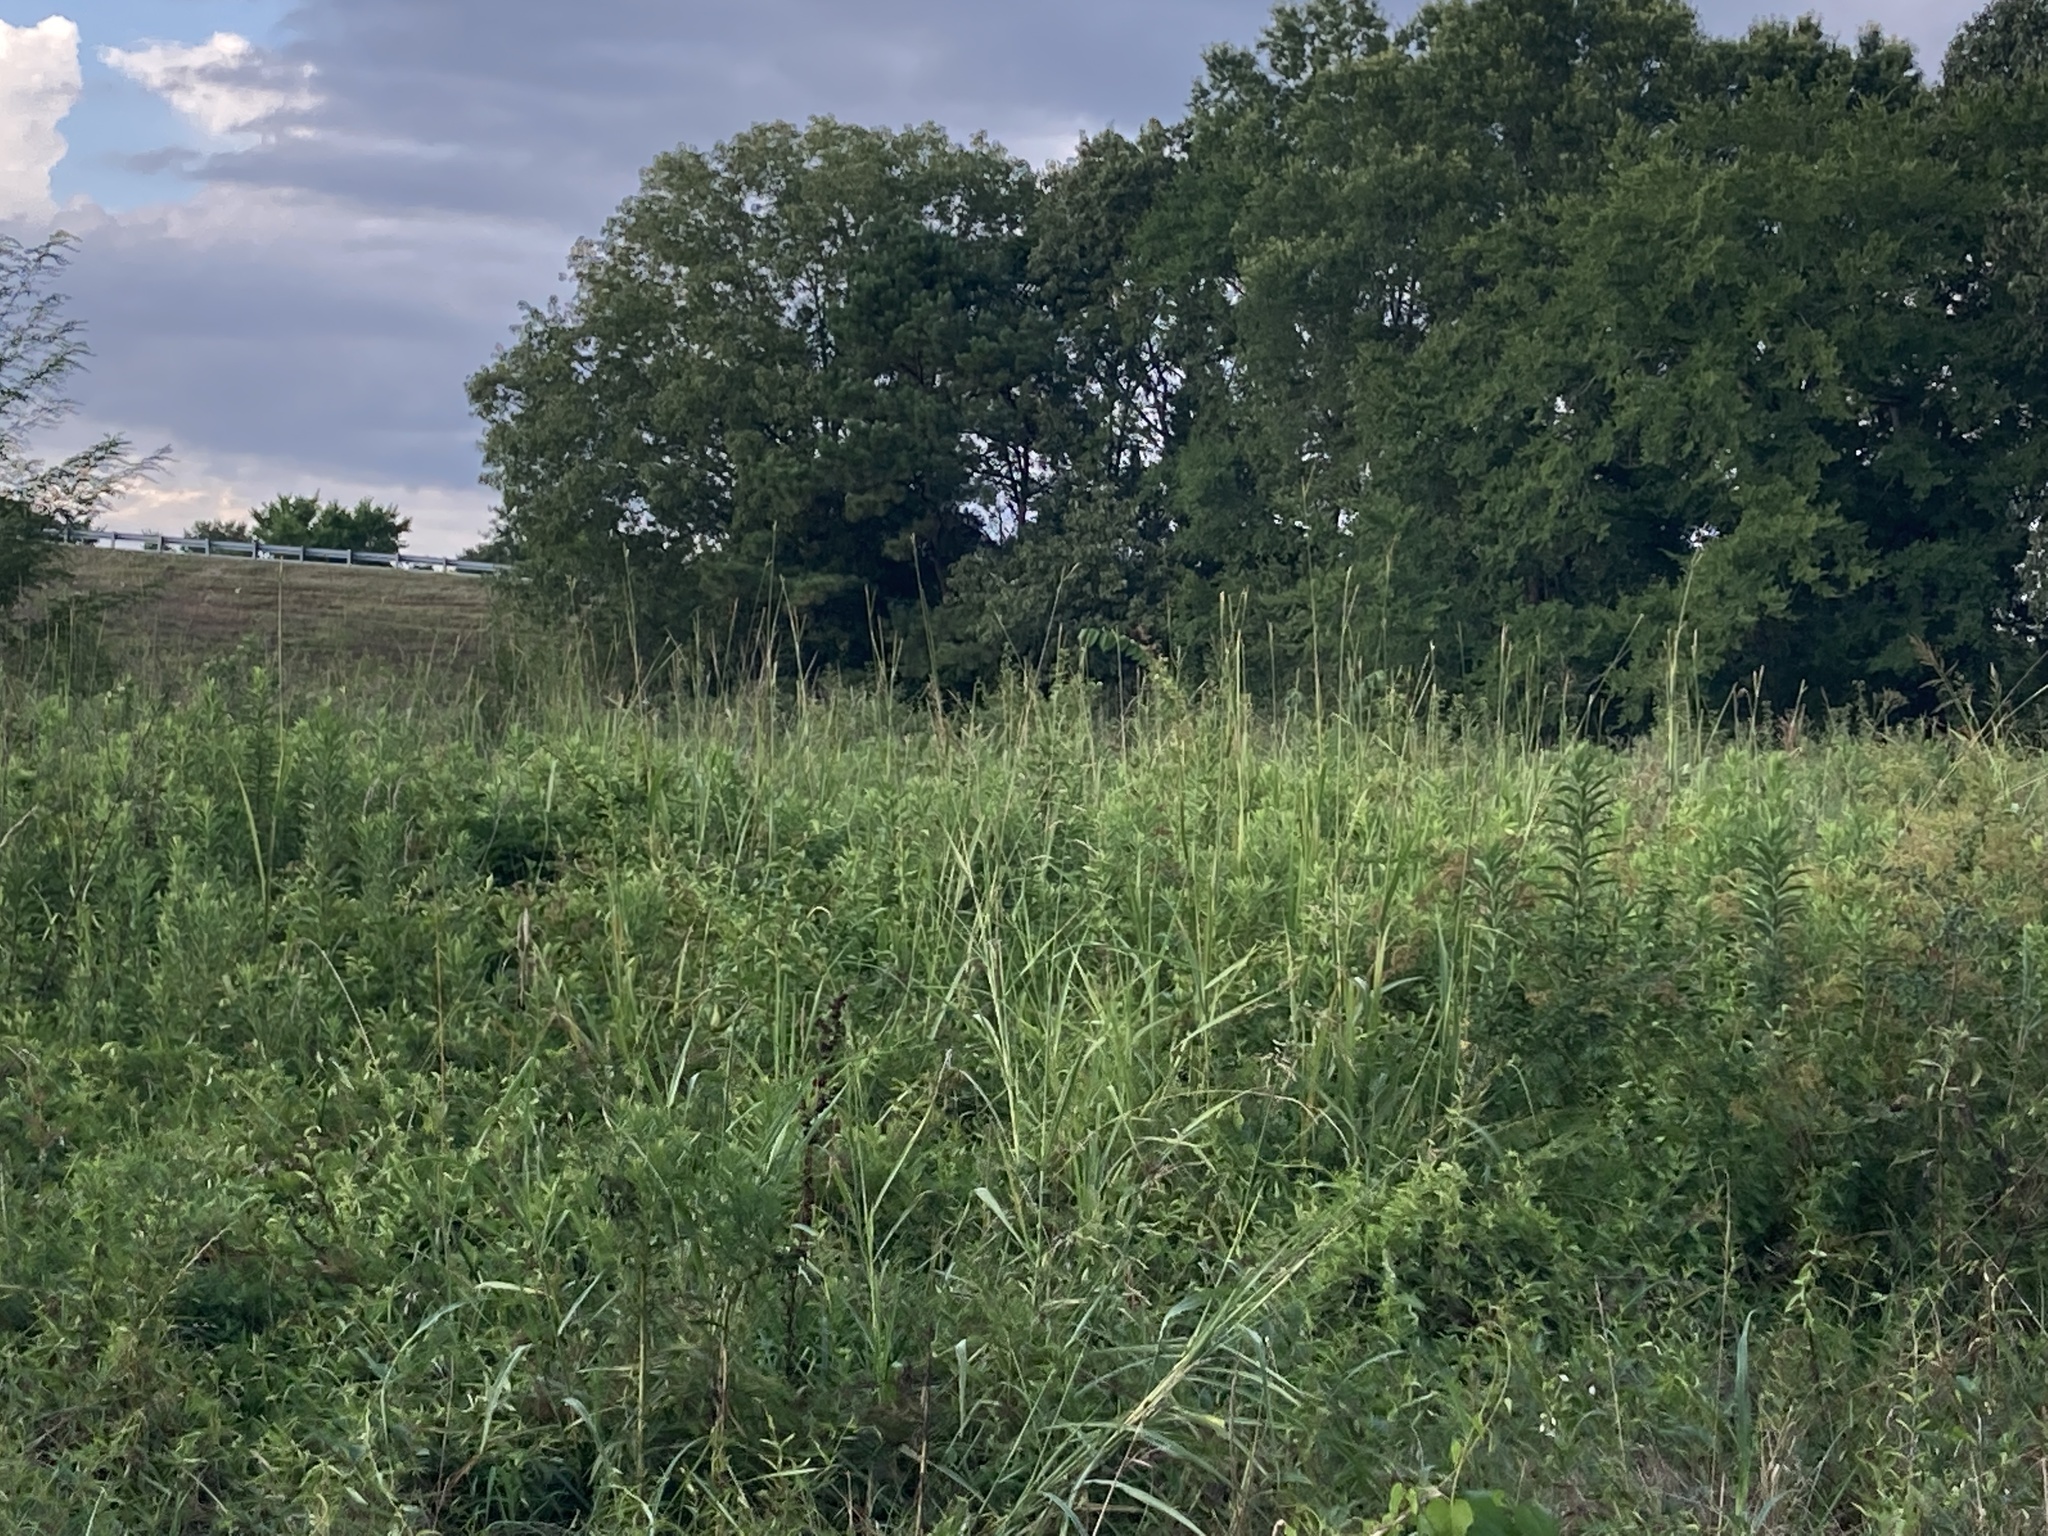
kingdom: Plantae
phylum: Tracheophyta
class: Liliopsida
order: Poales
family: Poaceae
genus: Tripsacum
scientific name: Tripsacum dactyloides
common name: Buffalo-grass
